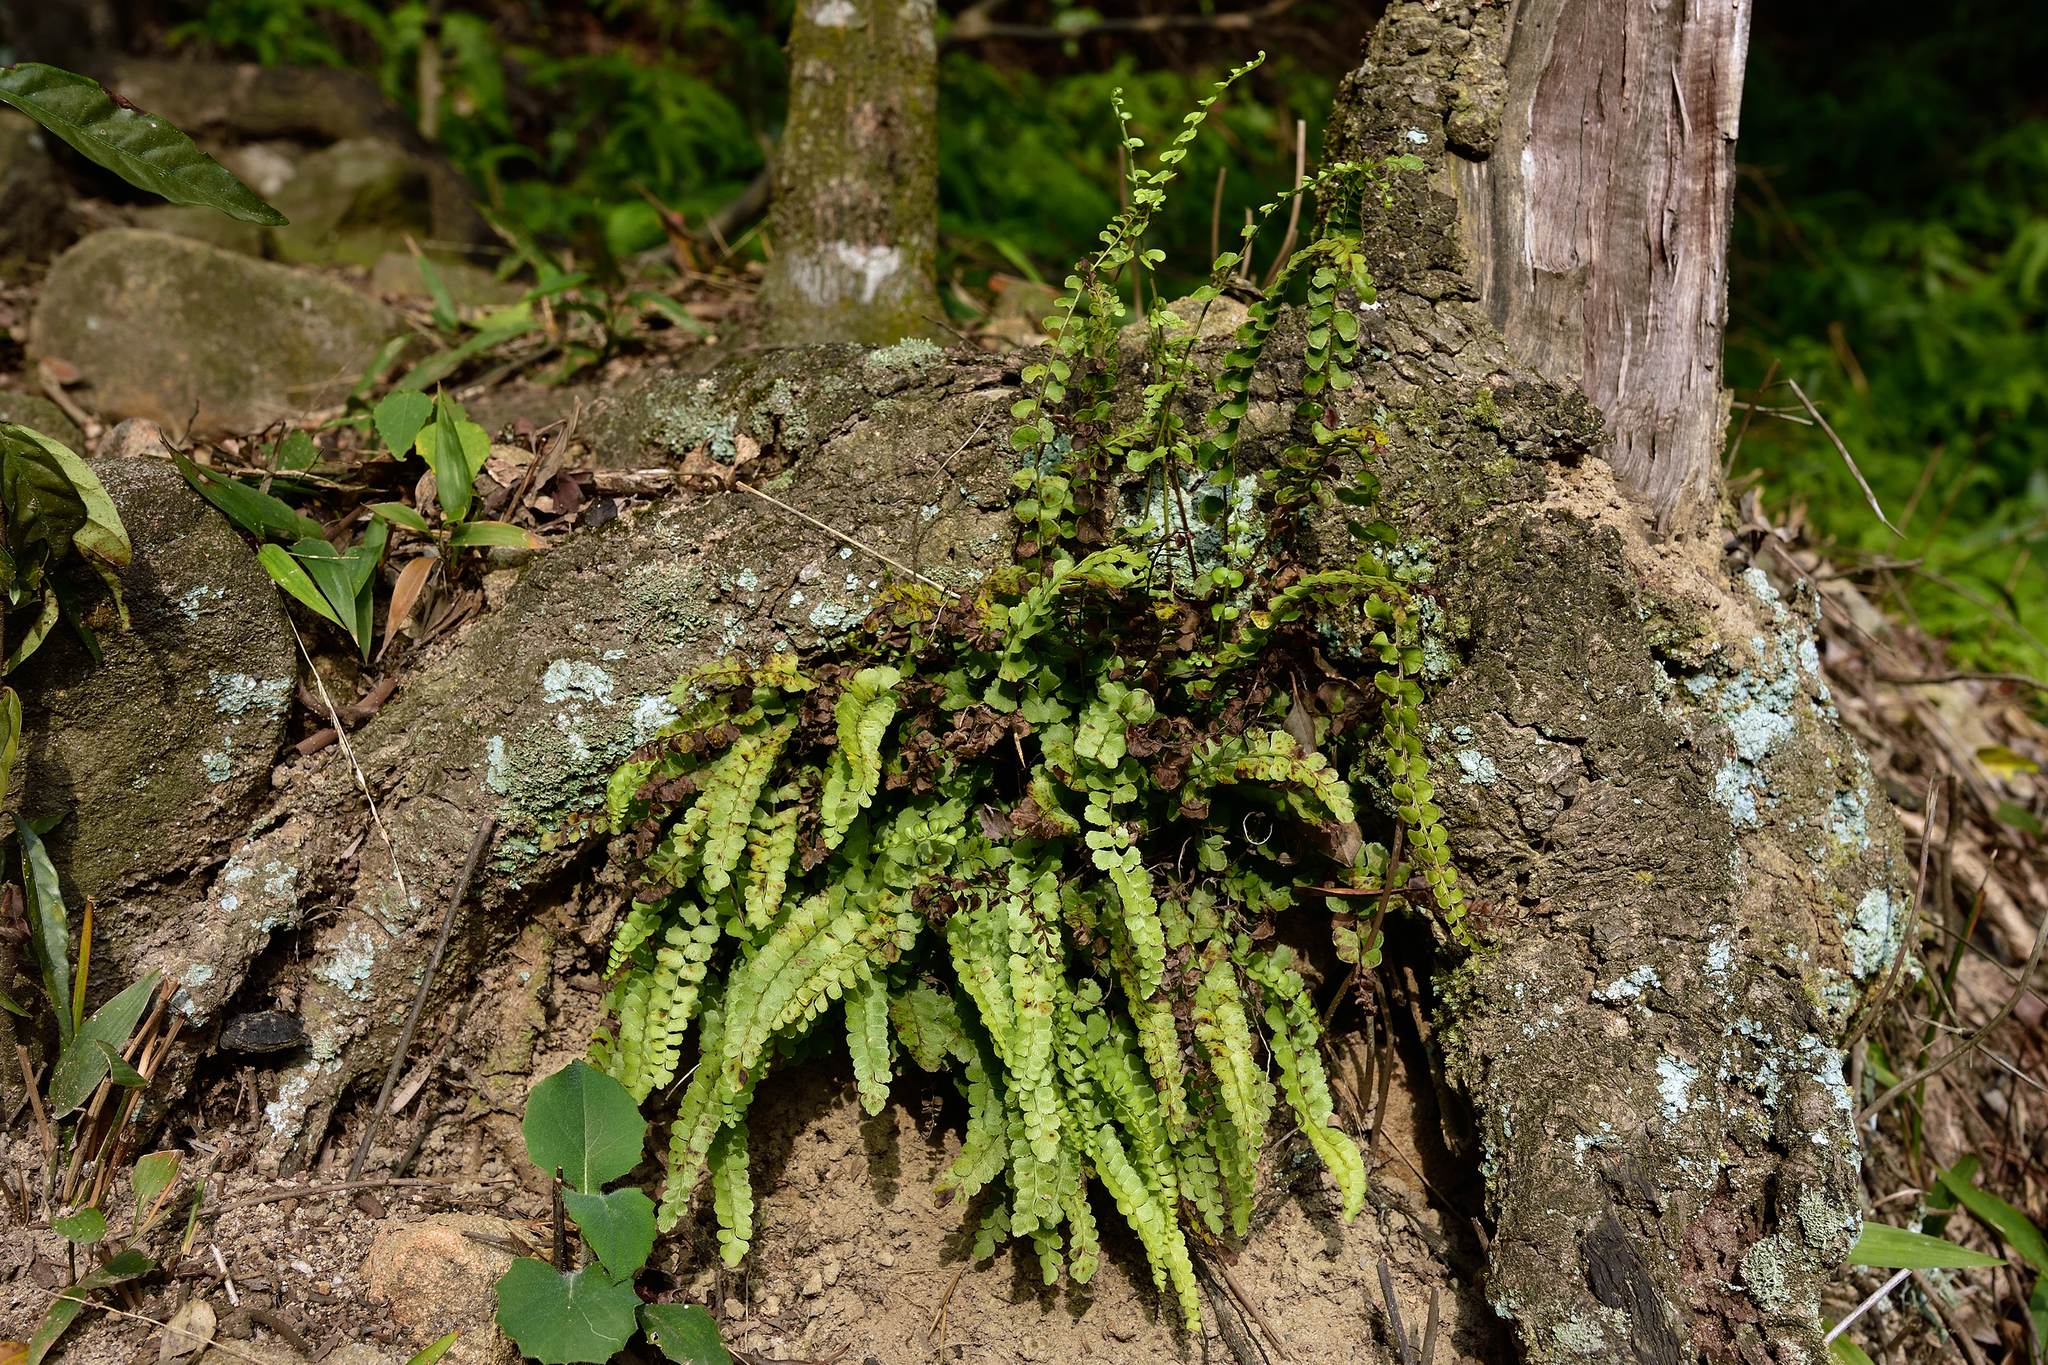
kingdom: Plantae
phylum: Tracheophyta
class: Polypodiopsida
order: Polypodiales
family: Lindsaeaceae
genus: Lindsaea
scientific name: Lindsaea orbiculata
